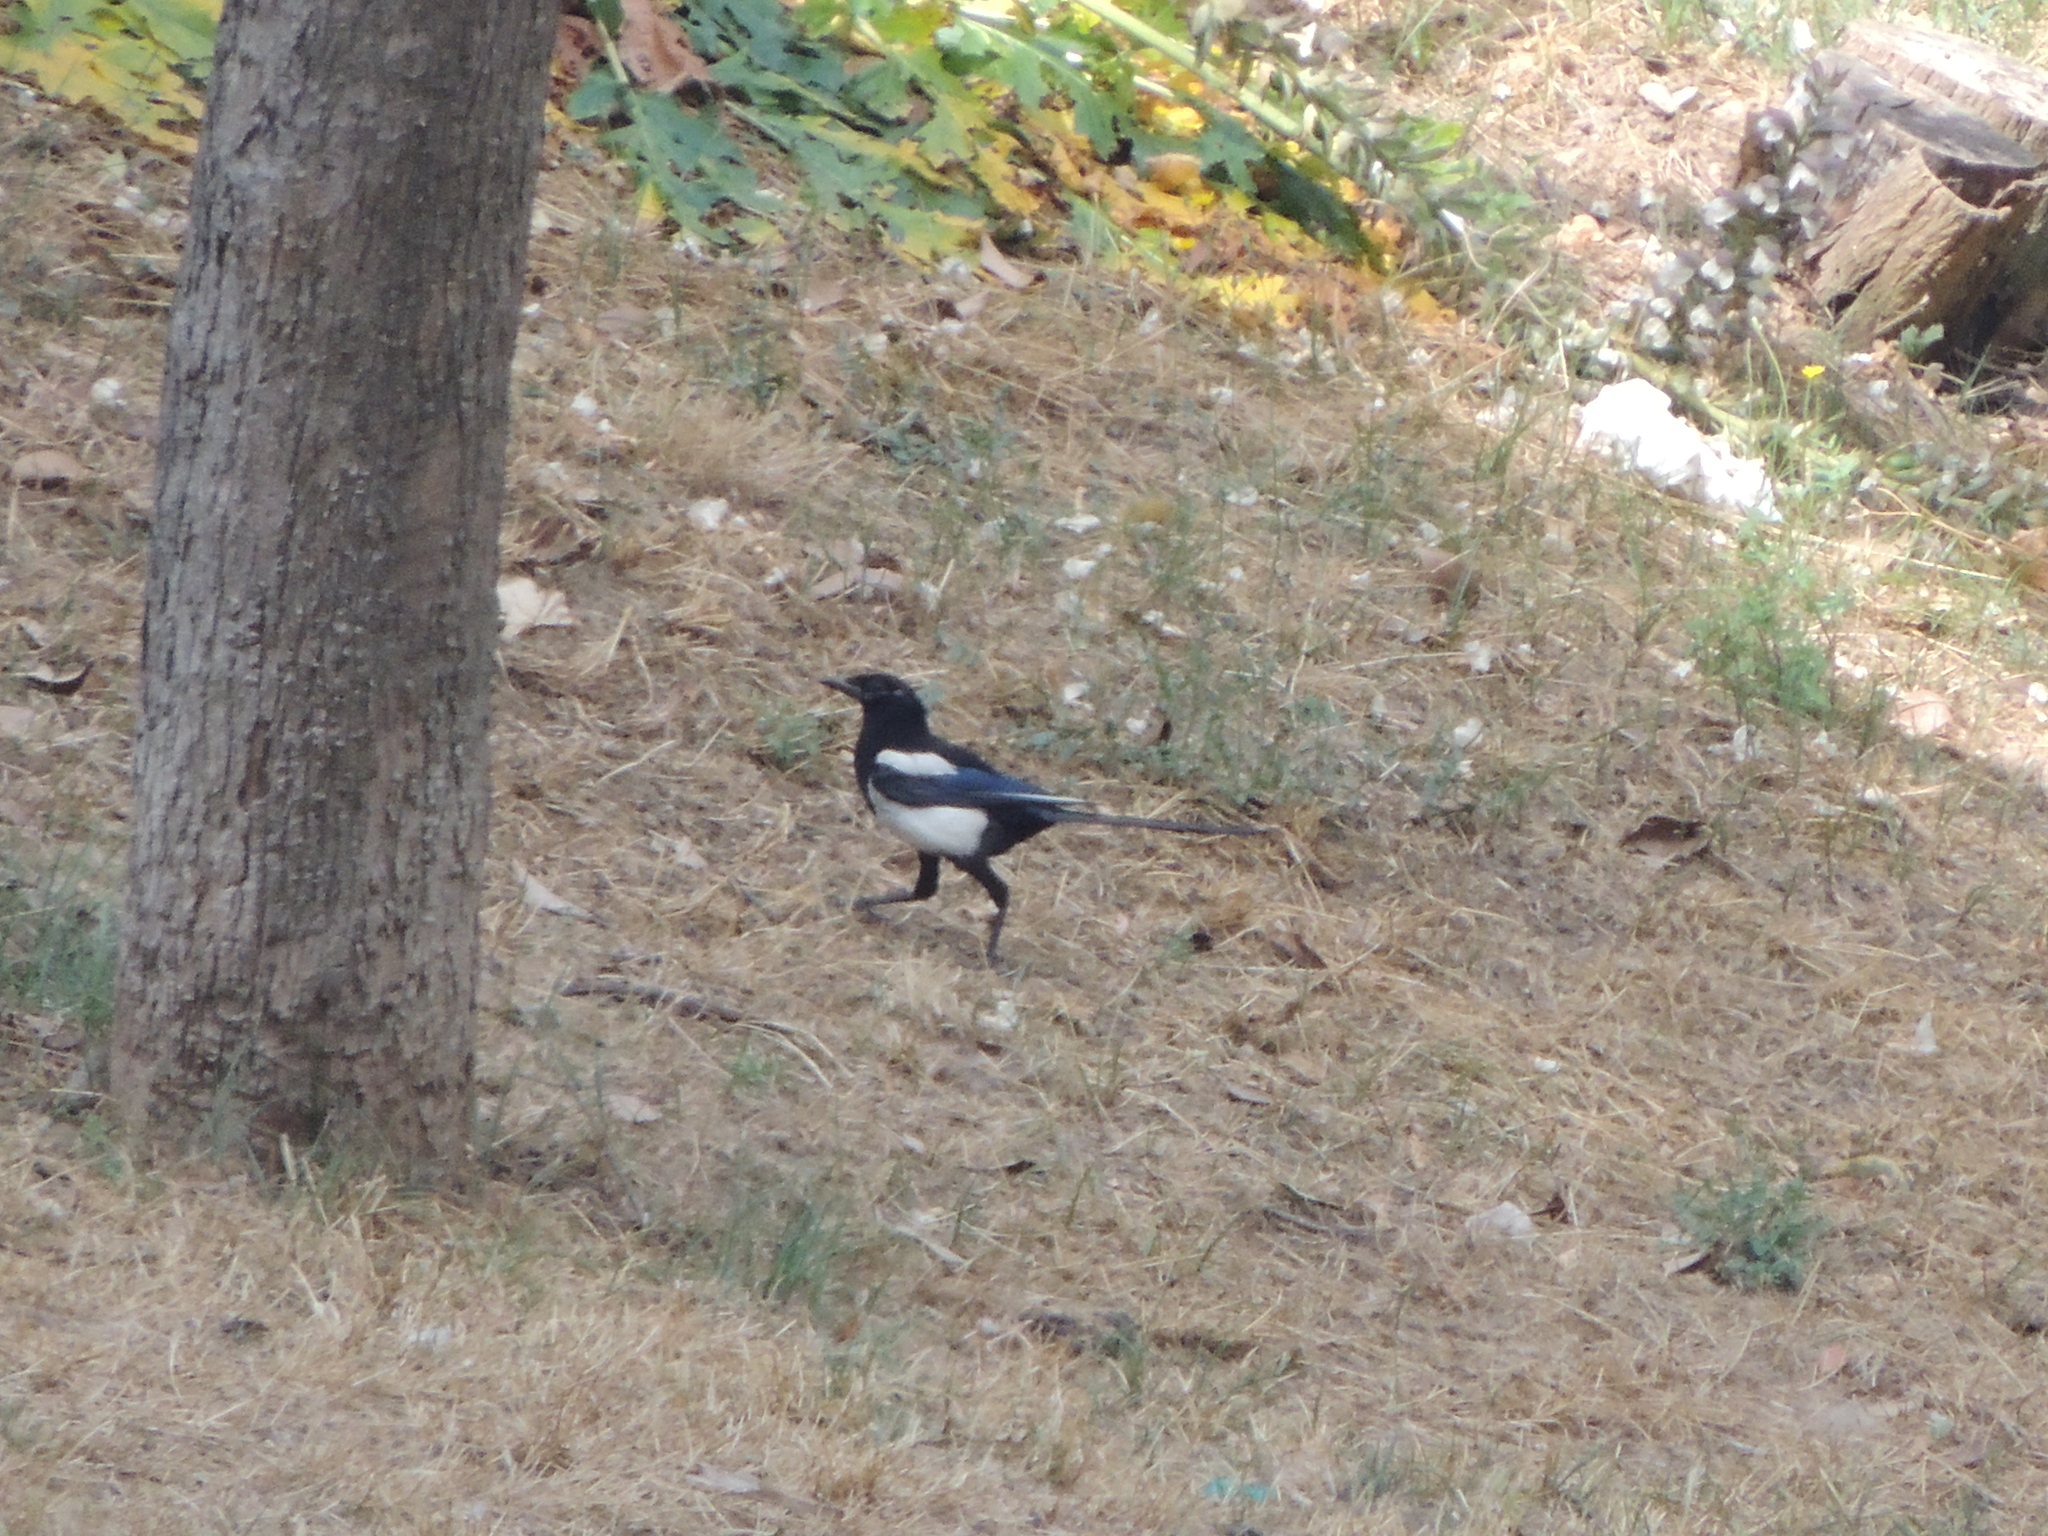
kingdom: Animalia
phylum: Chordata
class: Aves
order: Passeriformes
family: Corvidae
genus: Pica
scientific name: Pica pica
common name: Eurasian magpie
